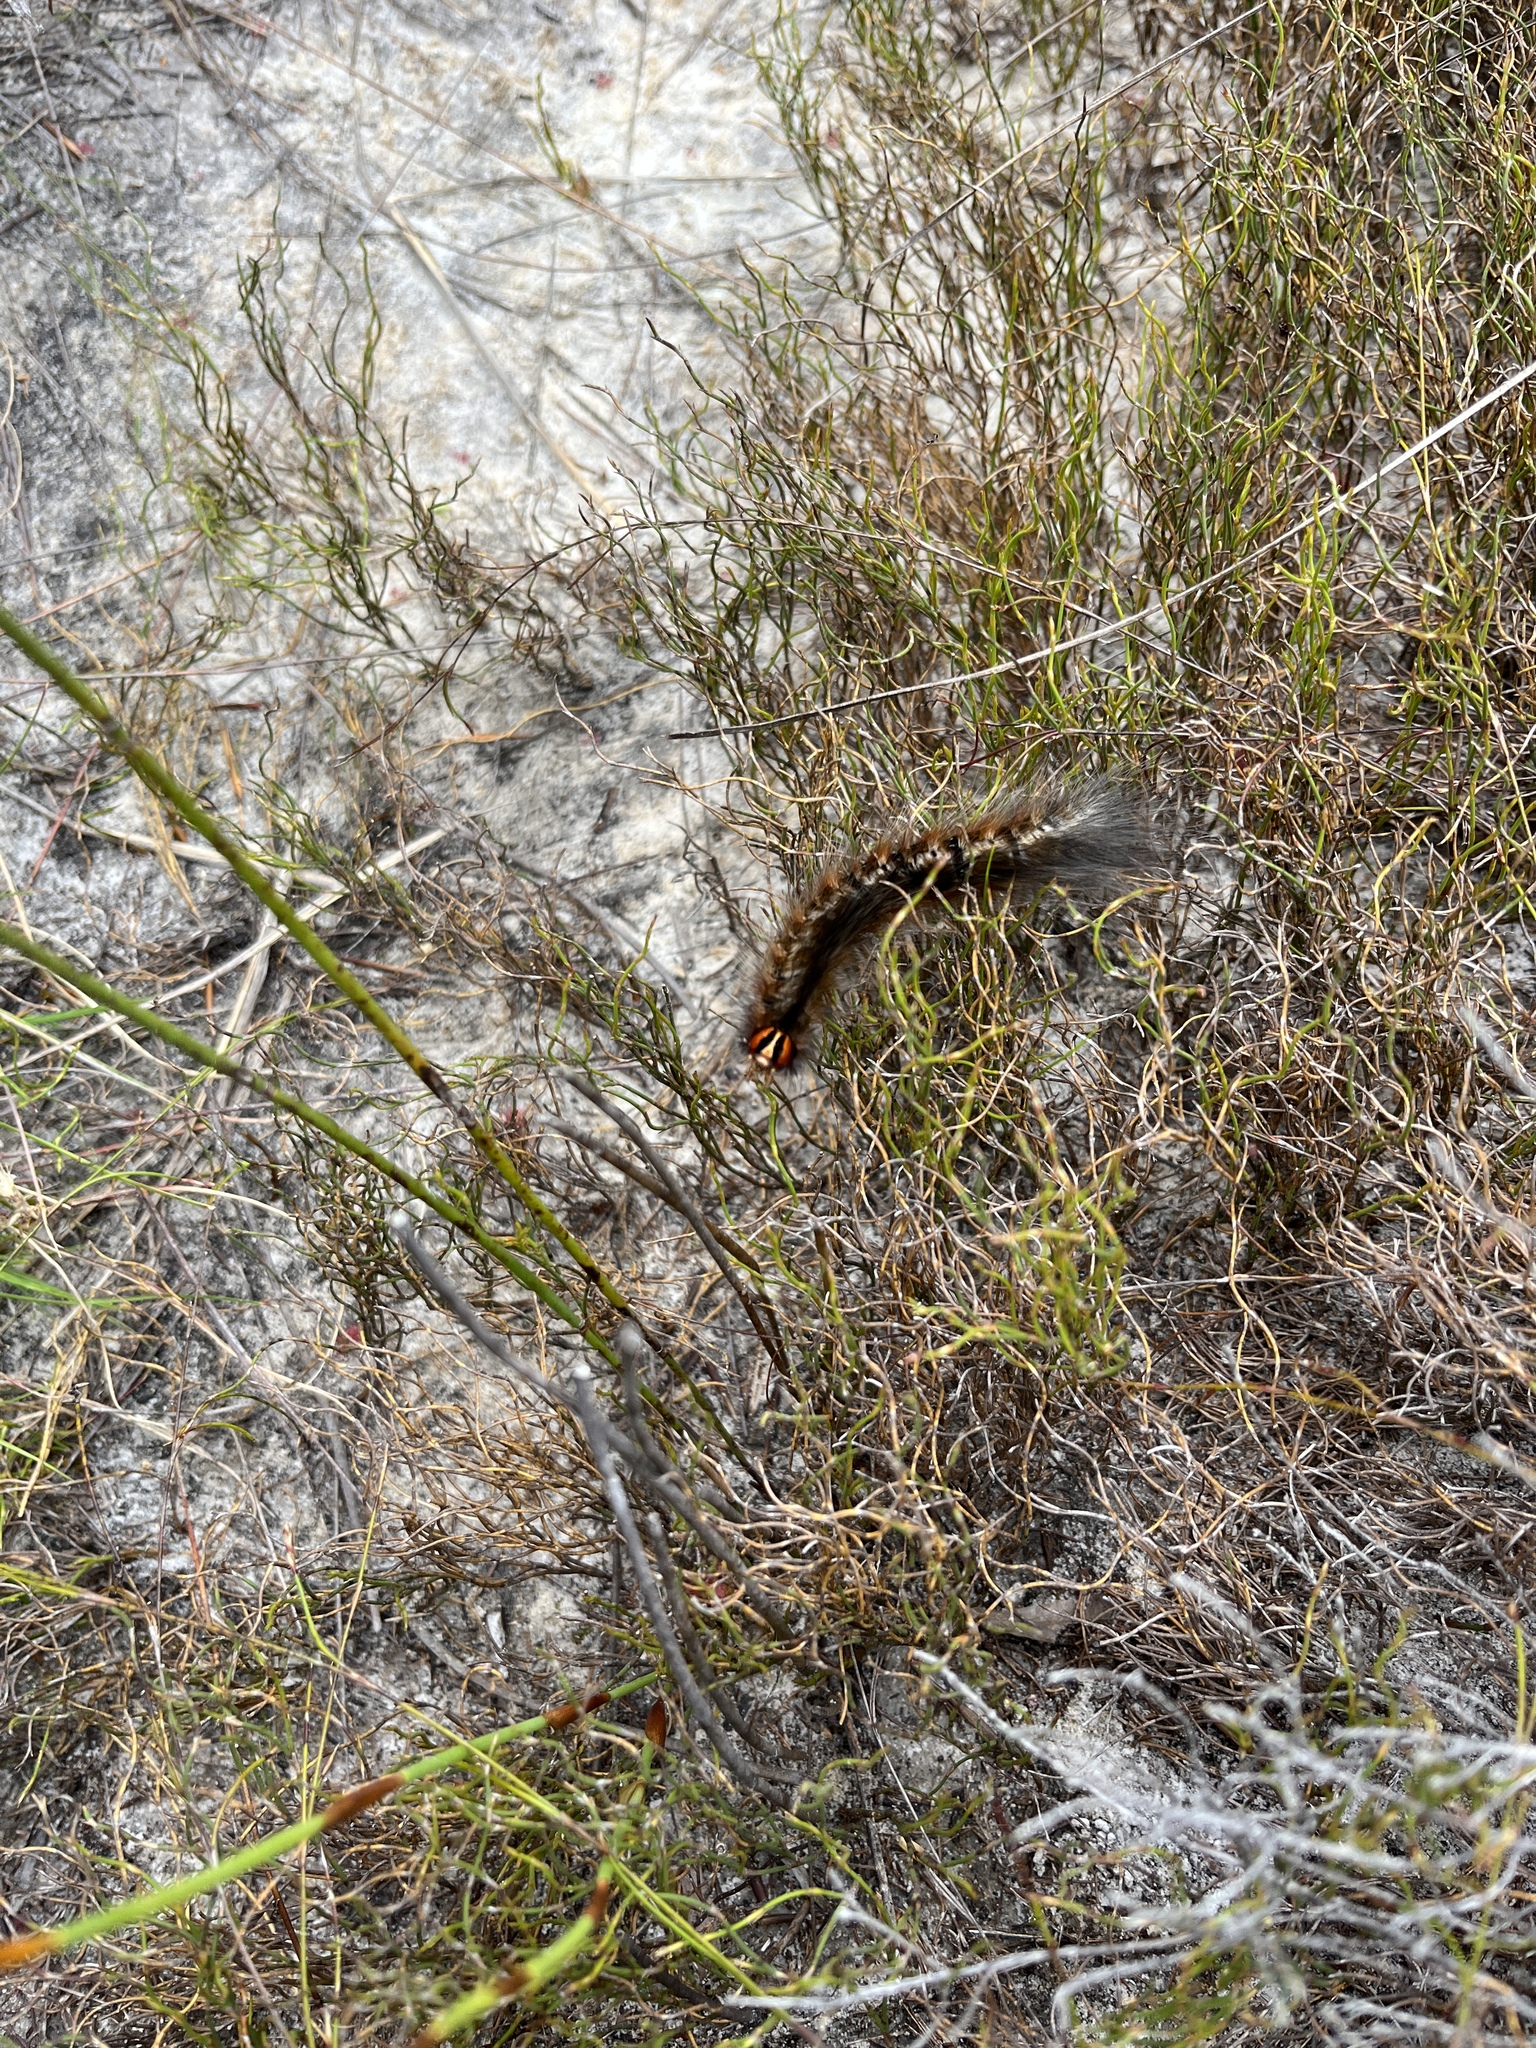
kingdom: Animalia
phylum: Arthropoda
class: Insecta
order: Lepidoptera
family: Lasiocampidae
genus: Mesocelis
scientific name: Mesocelis monticola
